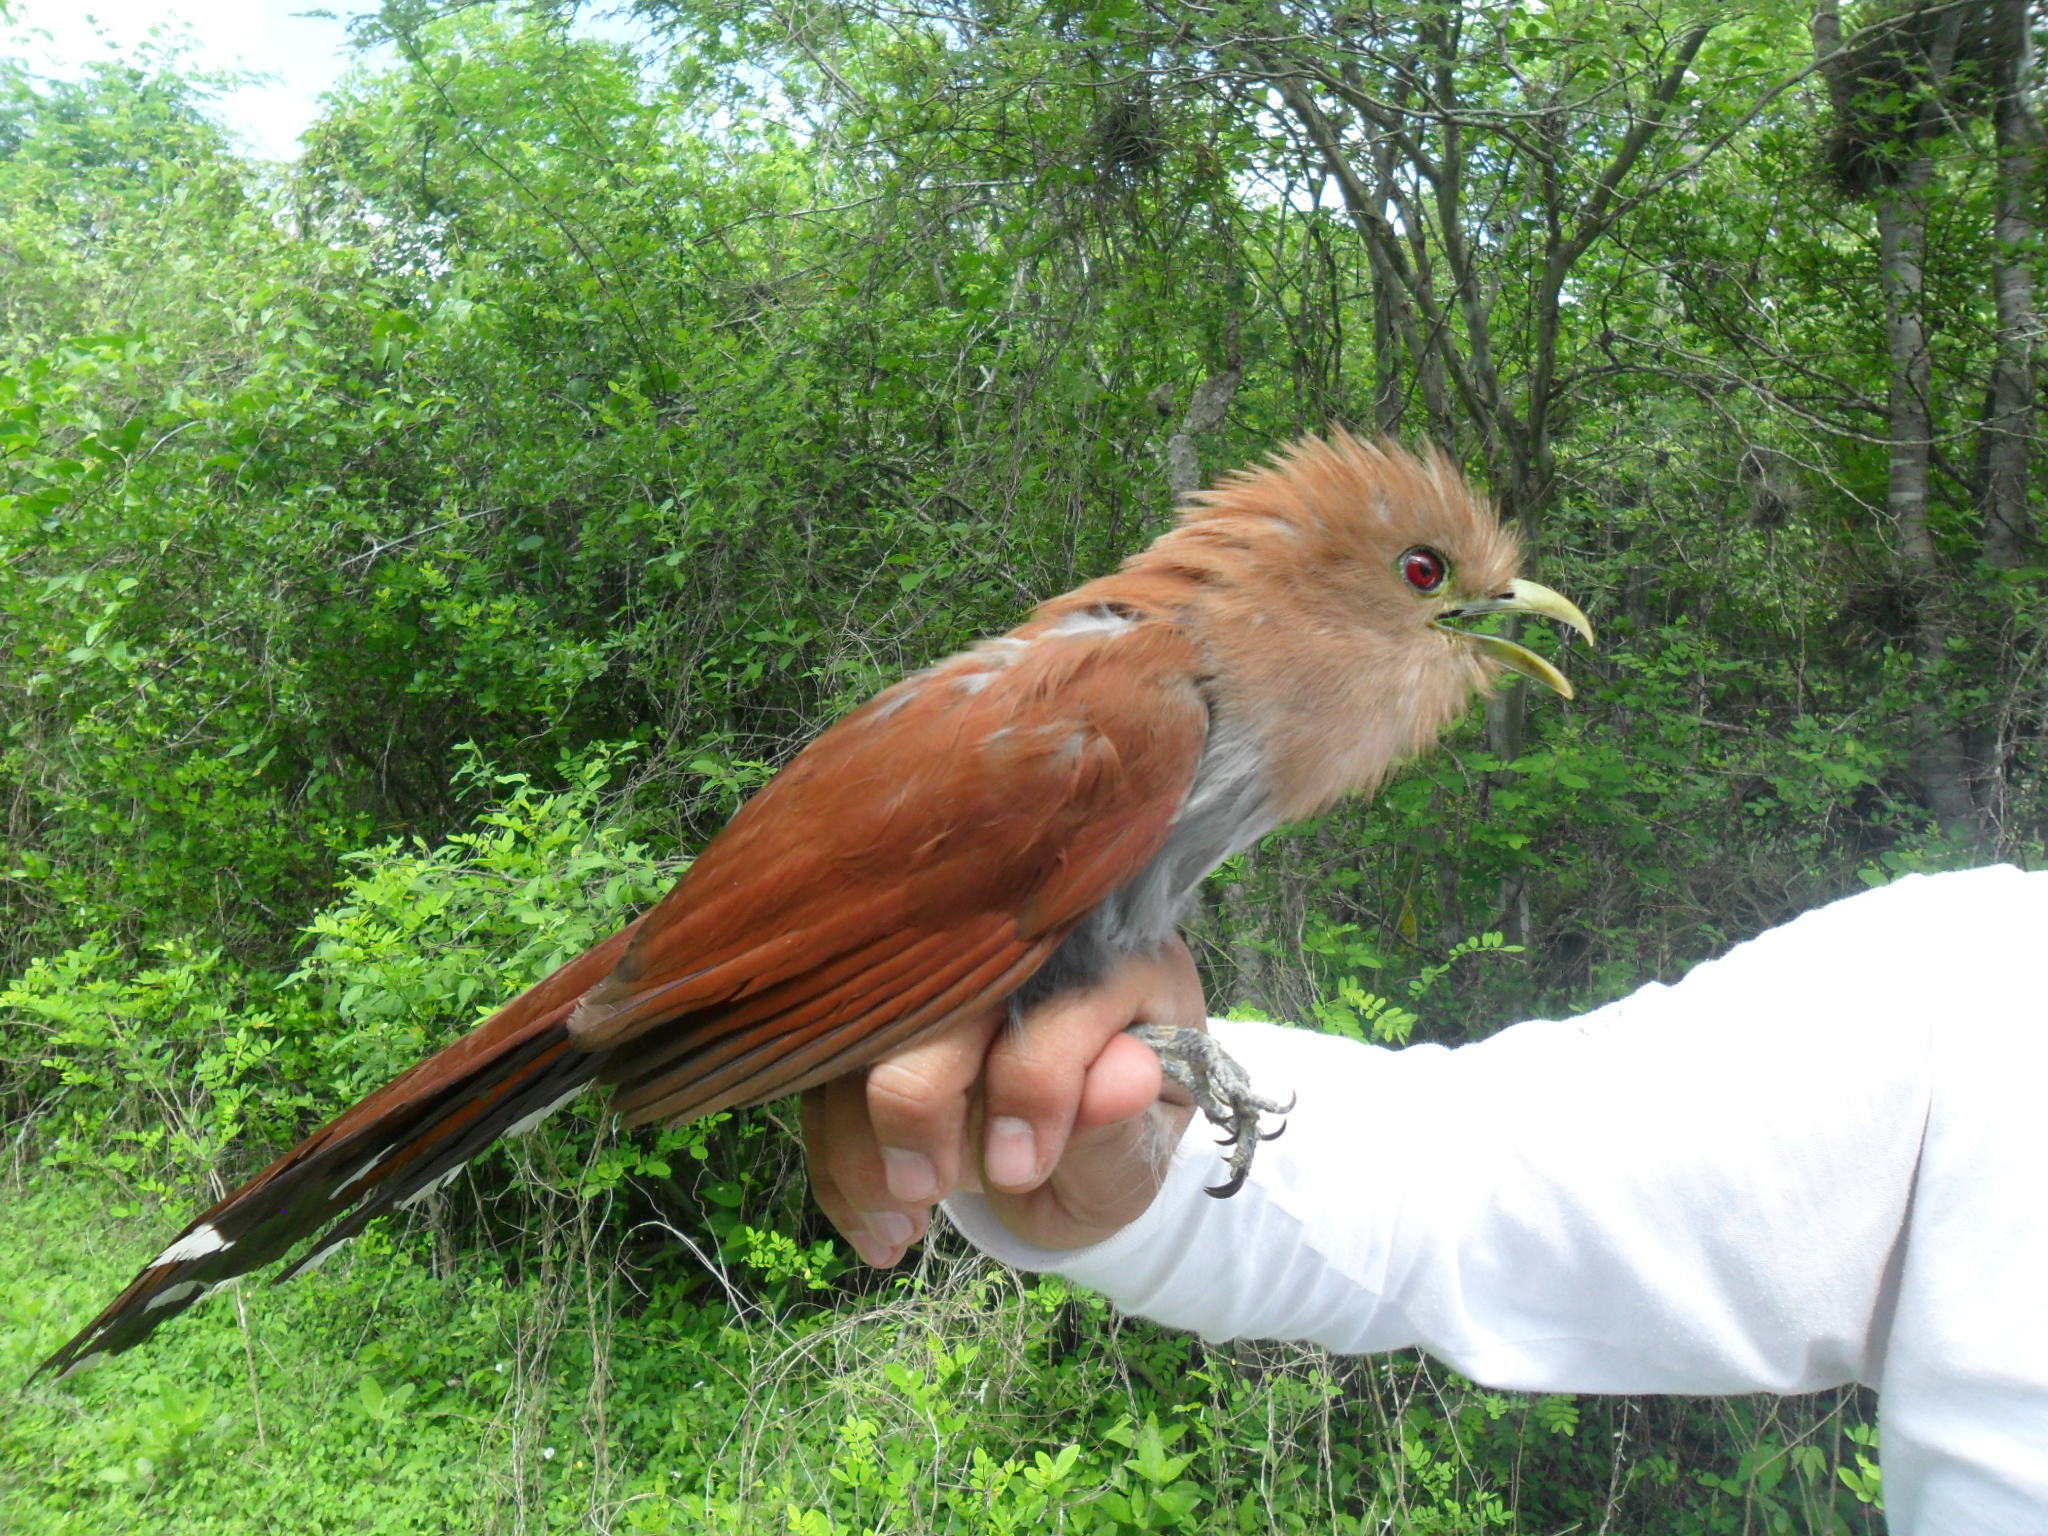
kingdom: Animalia
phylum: Chordata
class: Aves
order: Cuculiformes
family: Cuculidae
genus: Piaya
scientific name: Piaya cayana
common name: Squirrel cuckoo
